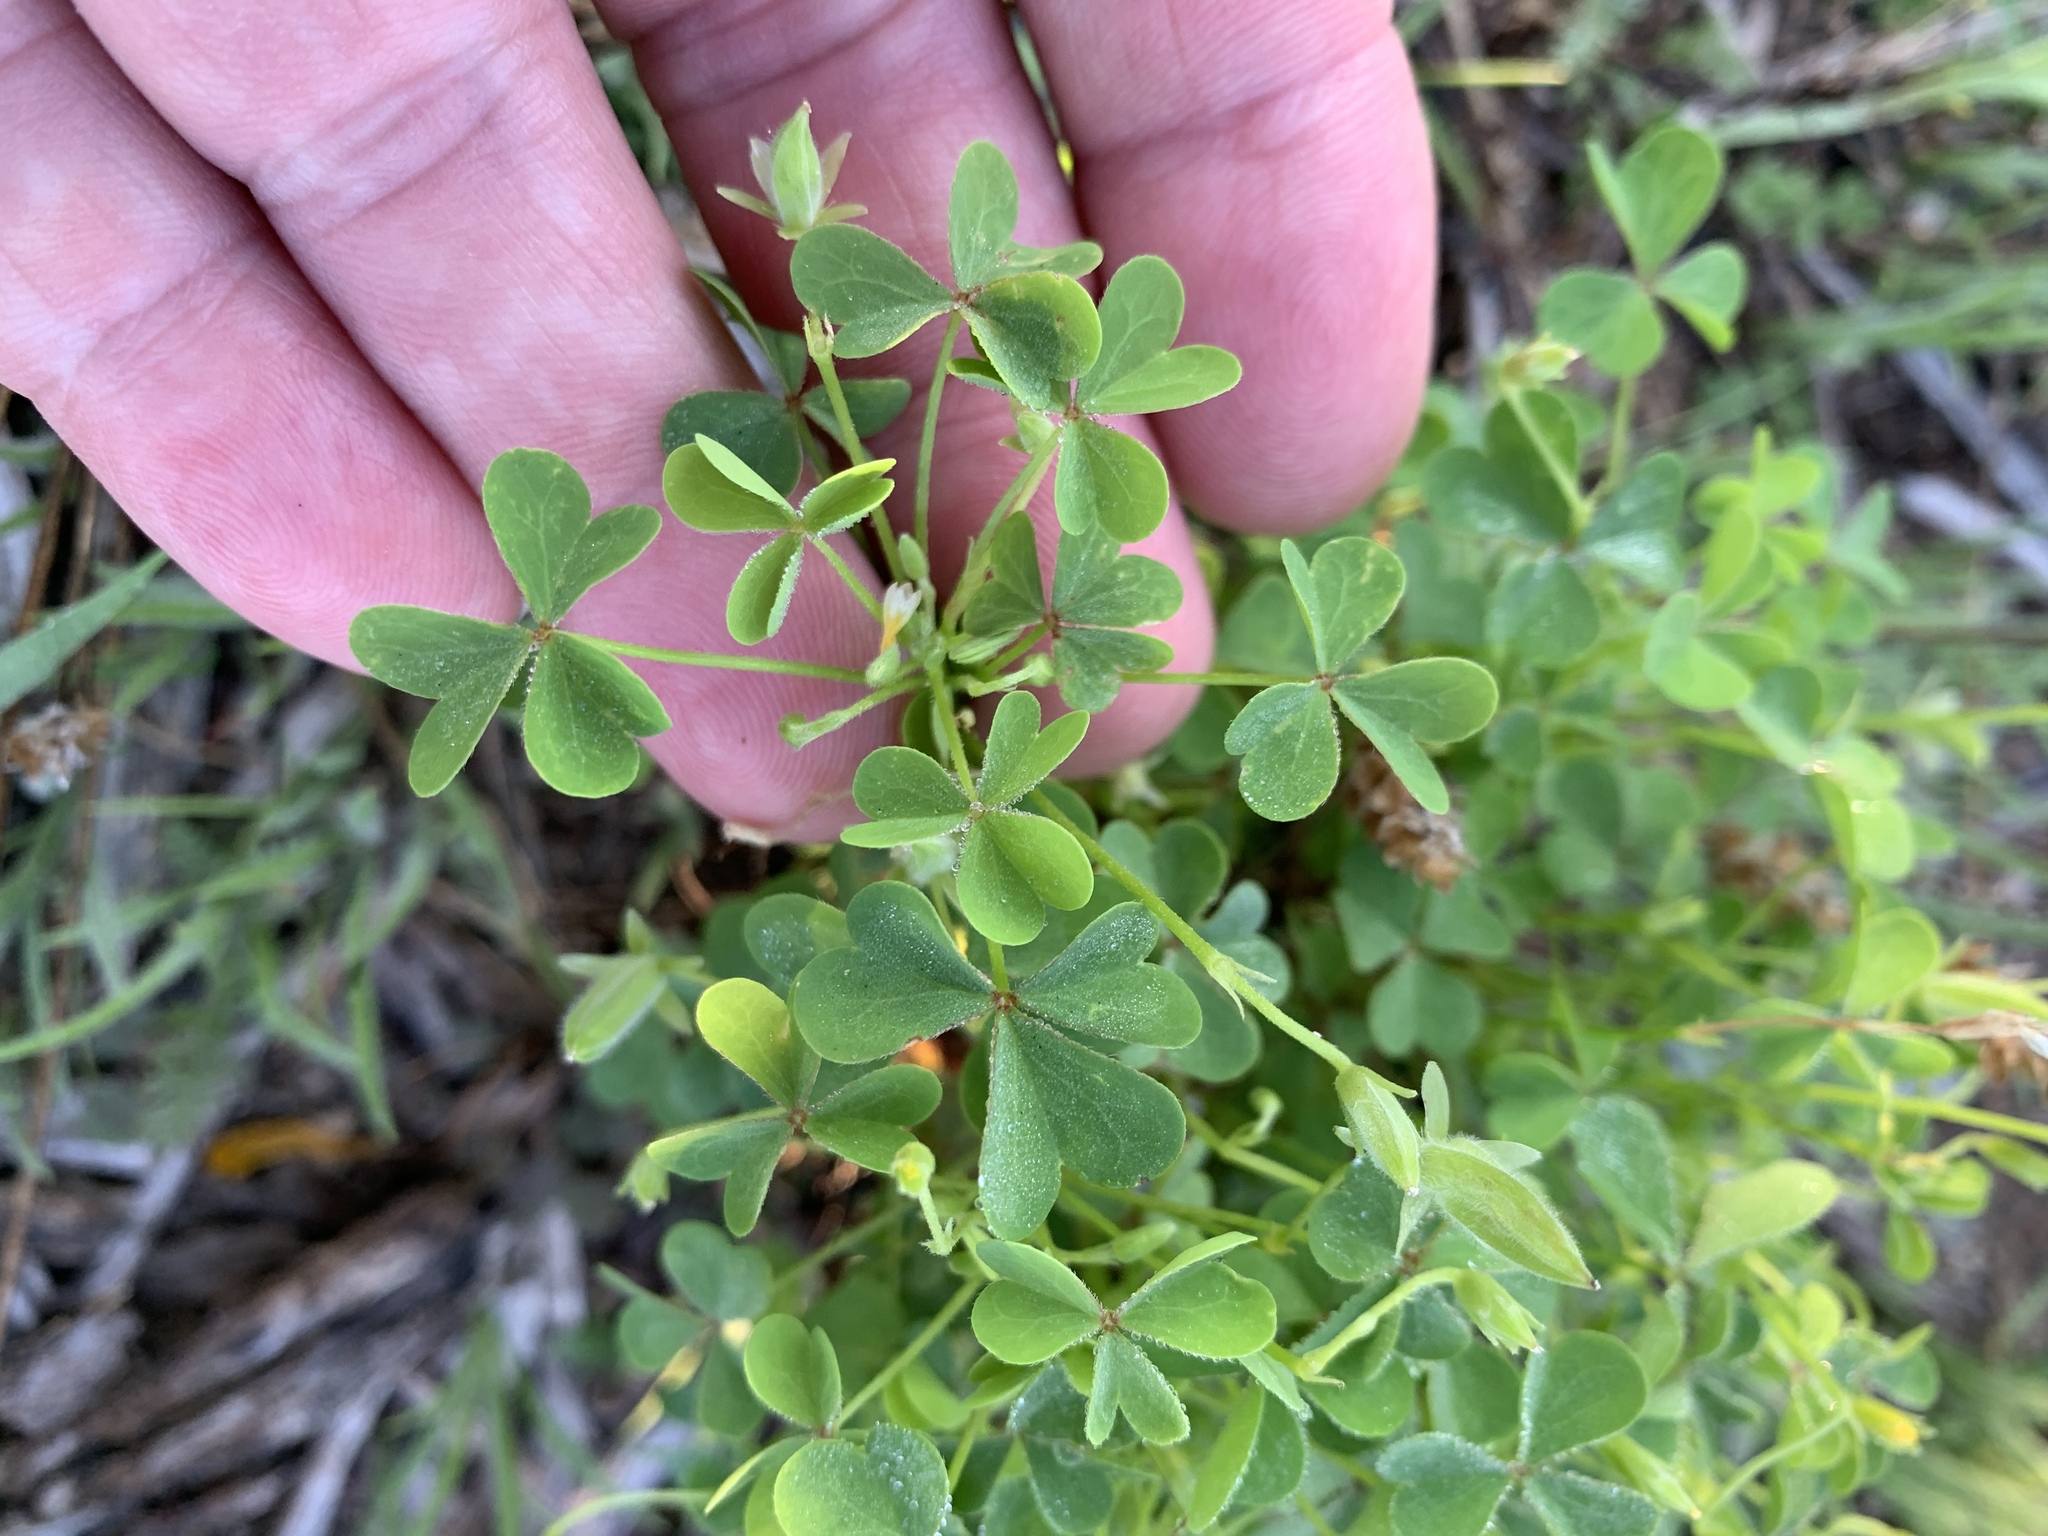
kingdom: Plantae
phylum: Tracheophyta
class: Magnoliopsida
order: Oxalidales
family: Oxalidaceae
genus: Oxalis
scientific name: Oxalis dillenii
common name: Sussex yellow-sorrel
